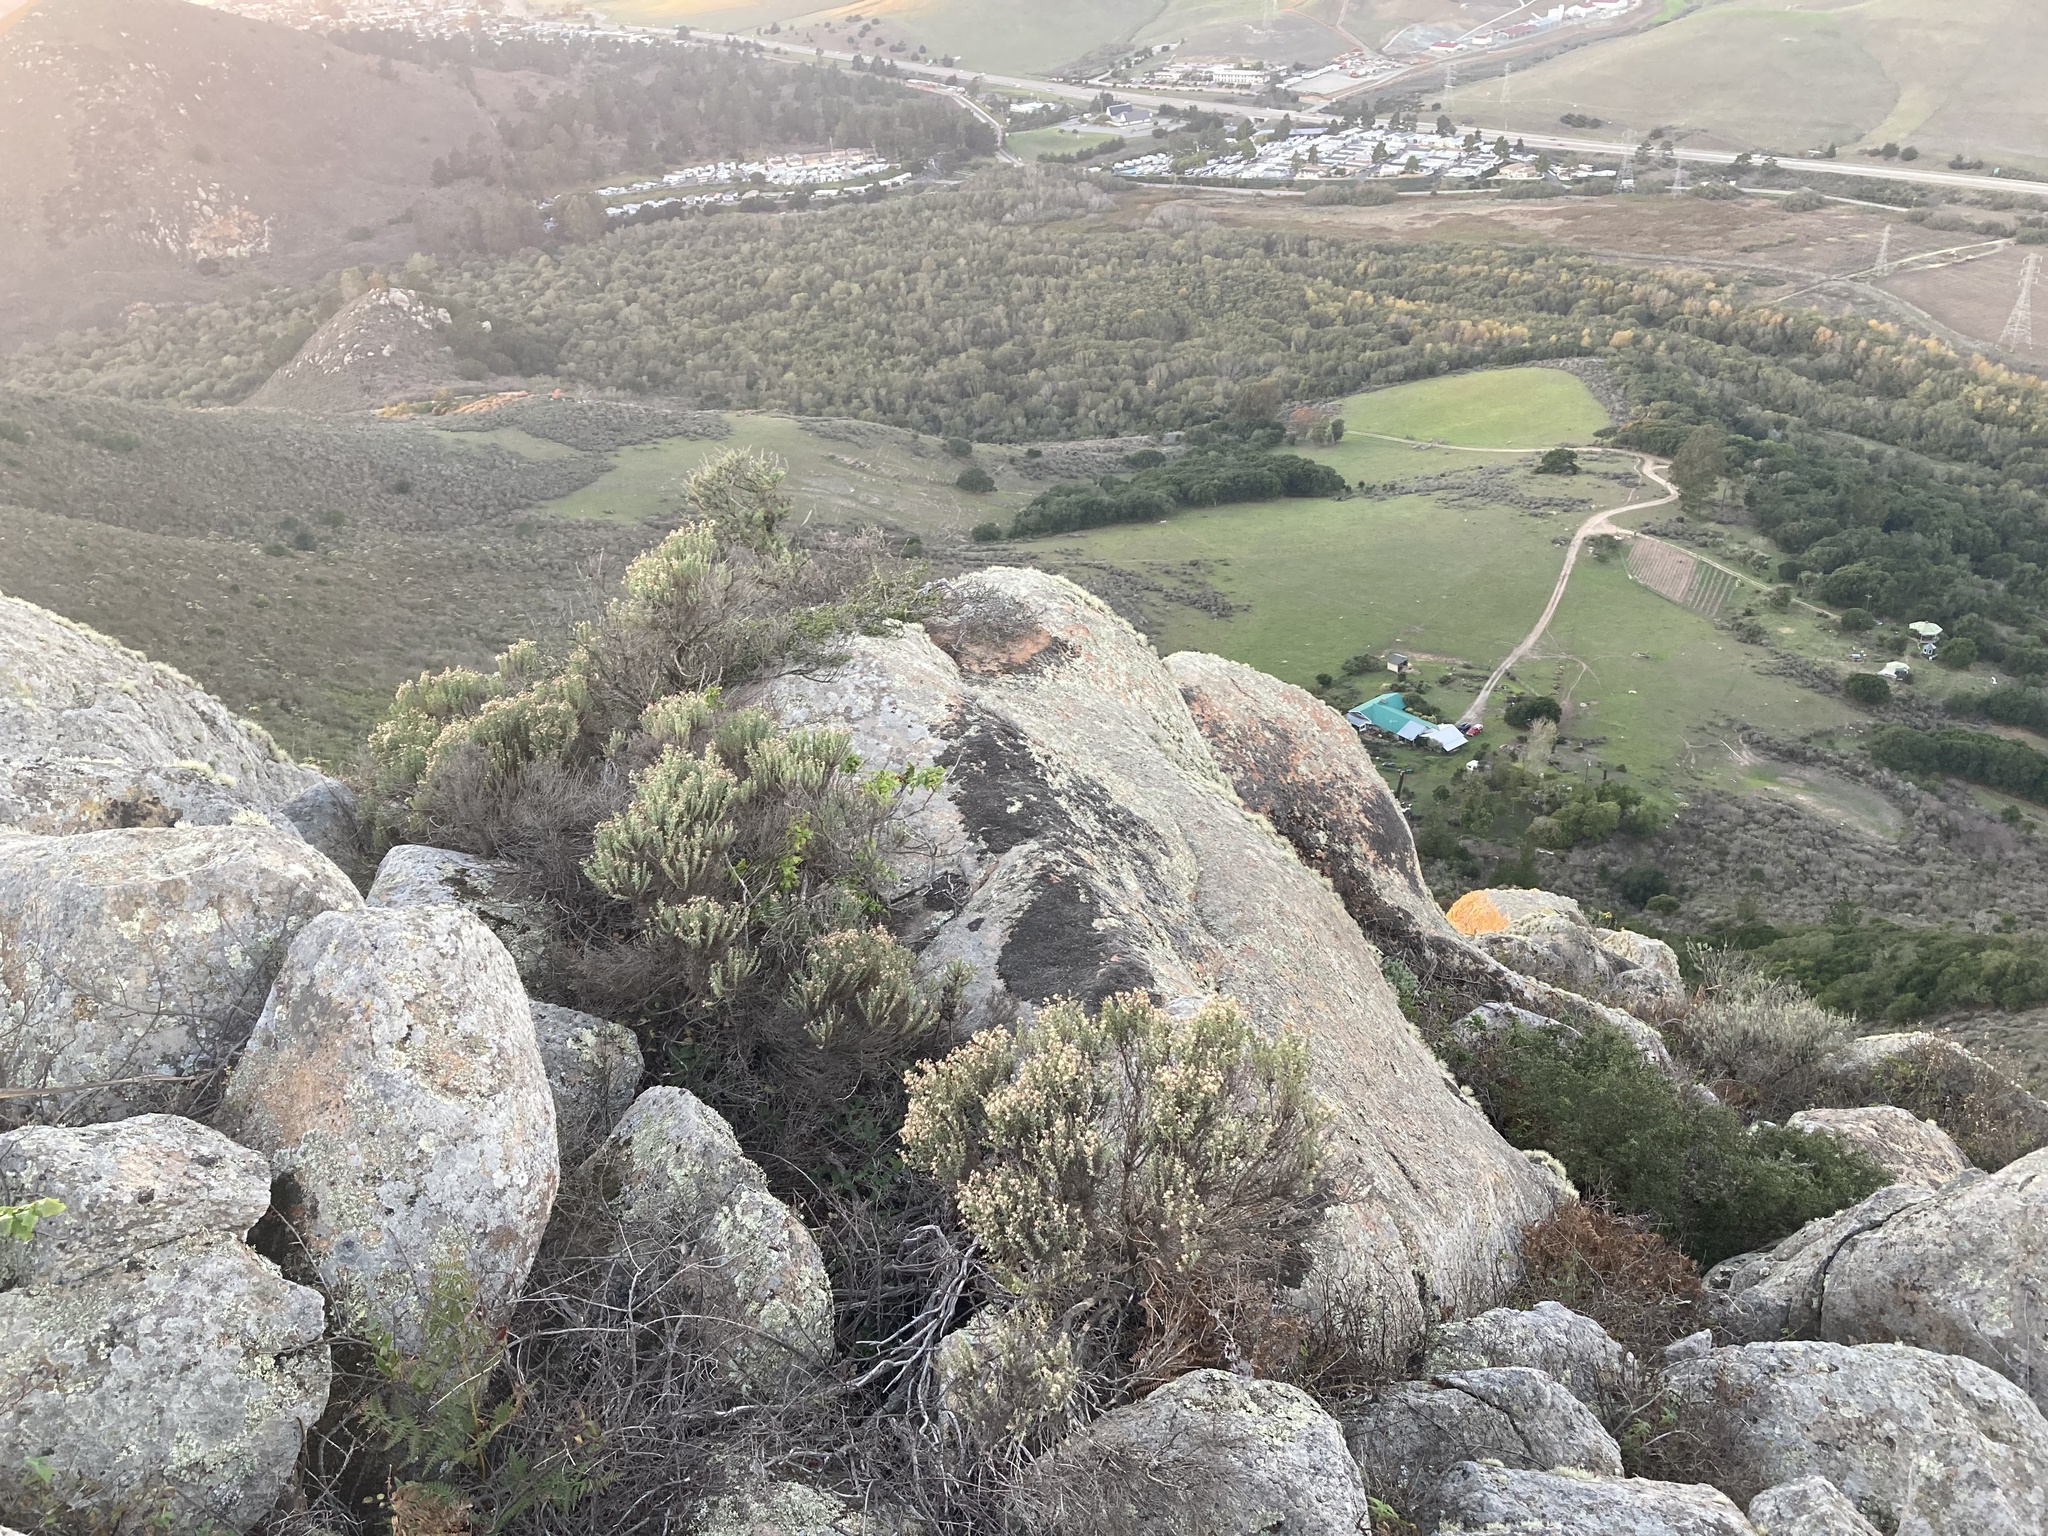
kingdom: Plantae
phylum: Tracheophyta
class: Magnoliopsida
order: Asterales
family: Asteraceae
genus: Ericameria
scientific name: Ericameria ericoides
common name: California goldenbush
